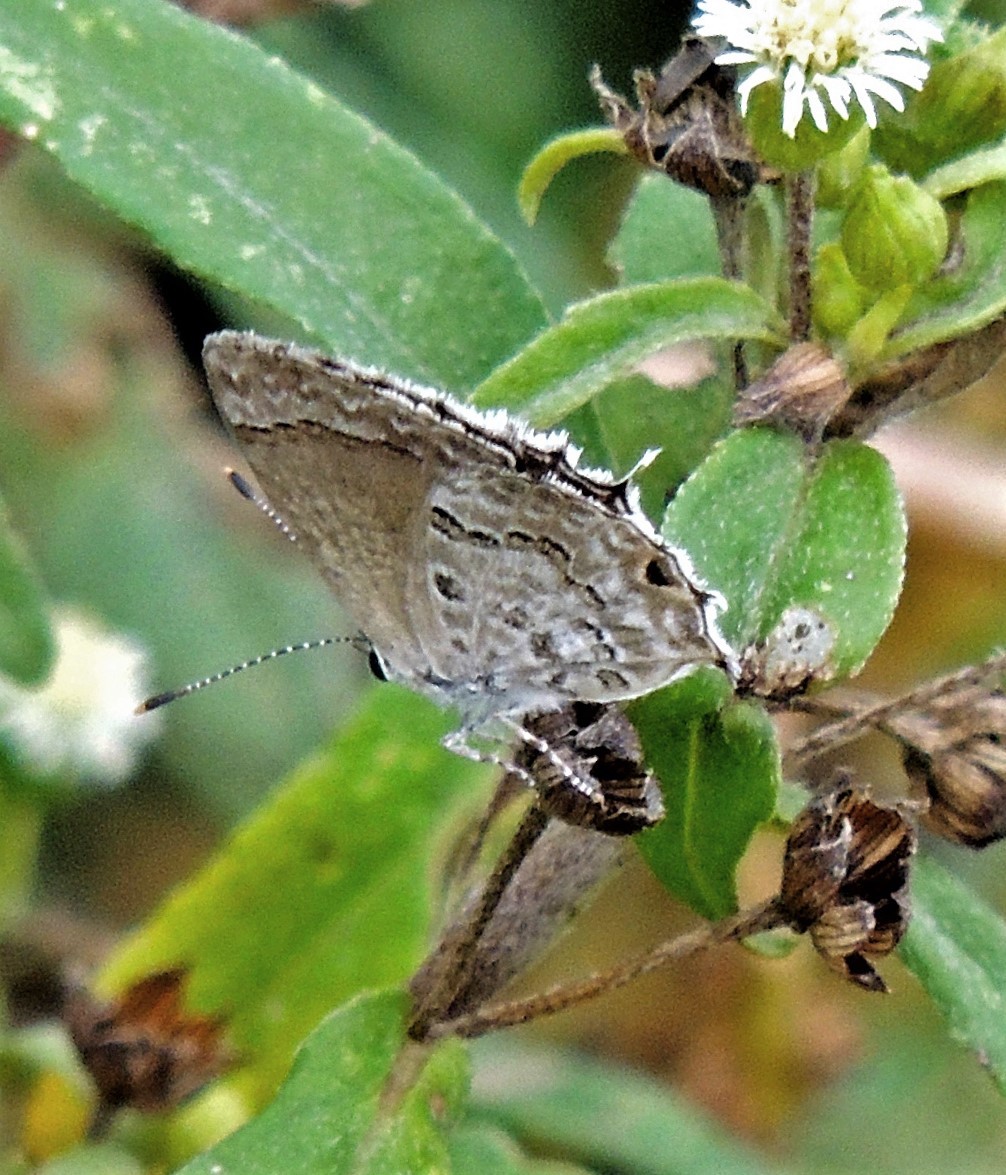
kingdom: Animalia
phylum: Arthropoda
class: Insecta
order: Lepidoptera
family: Lycaenidae
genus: Strymon
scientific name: Strymon astiocha
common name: Gray-spotted scrub-hairstreak
